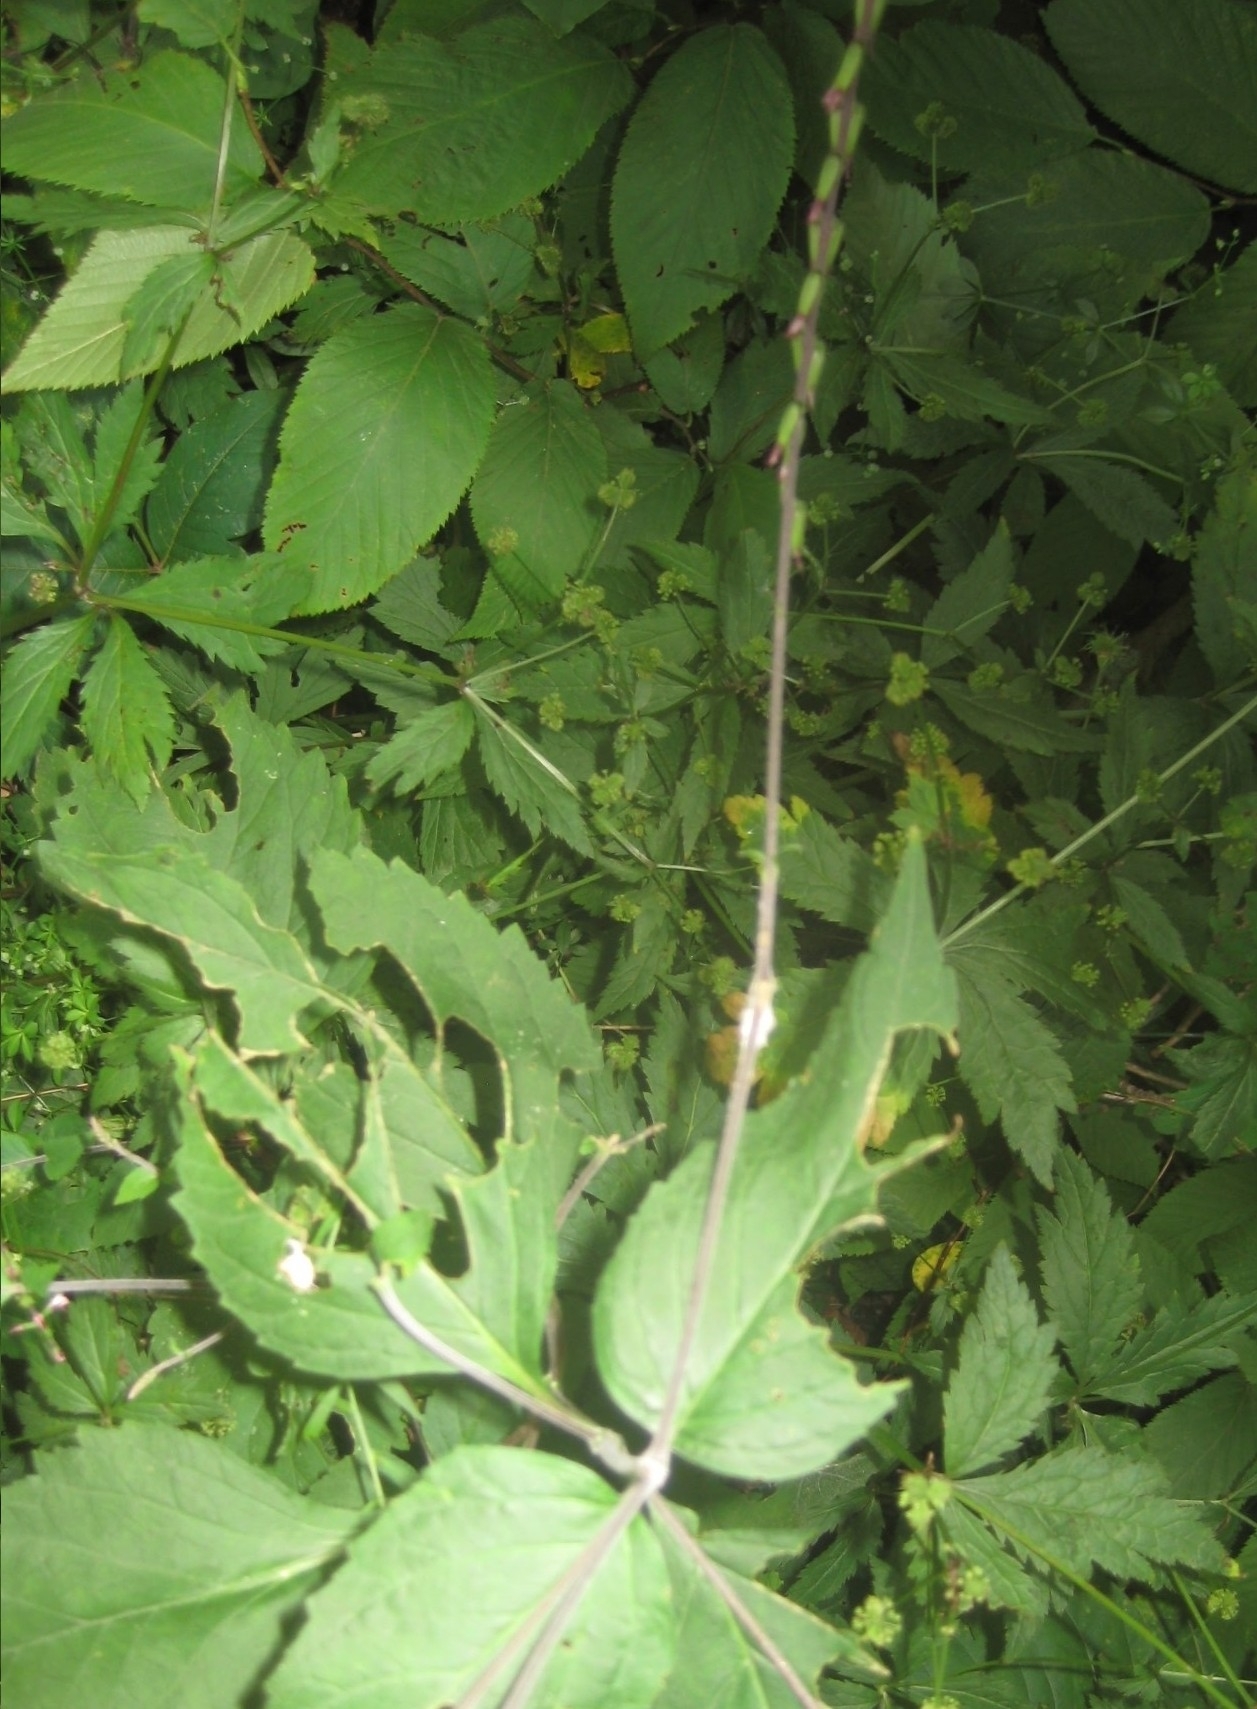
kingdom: Plantae
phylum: Tracheophyta
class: Magnoliopsida
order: Lamiales
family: Phrymaceae
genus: Phryma
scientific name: Phryma leptostachya
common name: American lopseed
